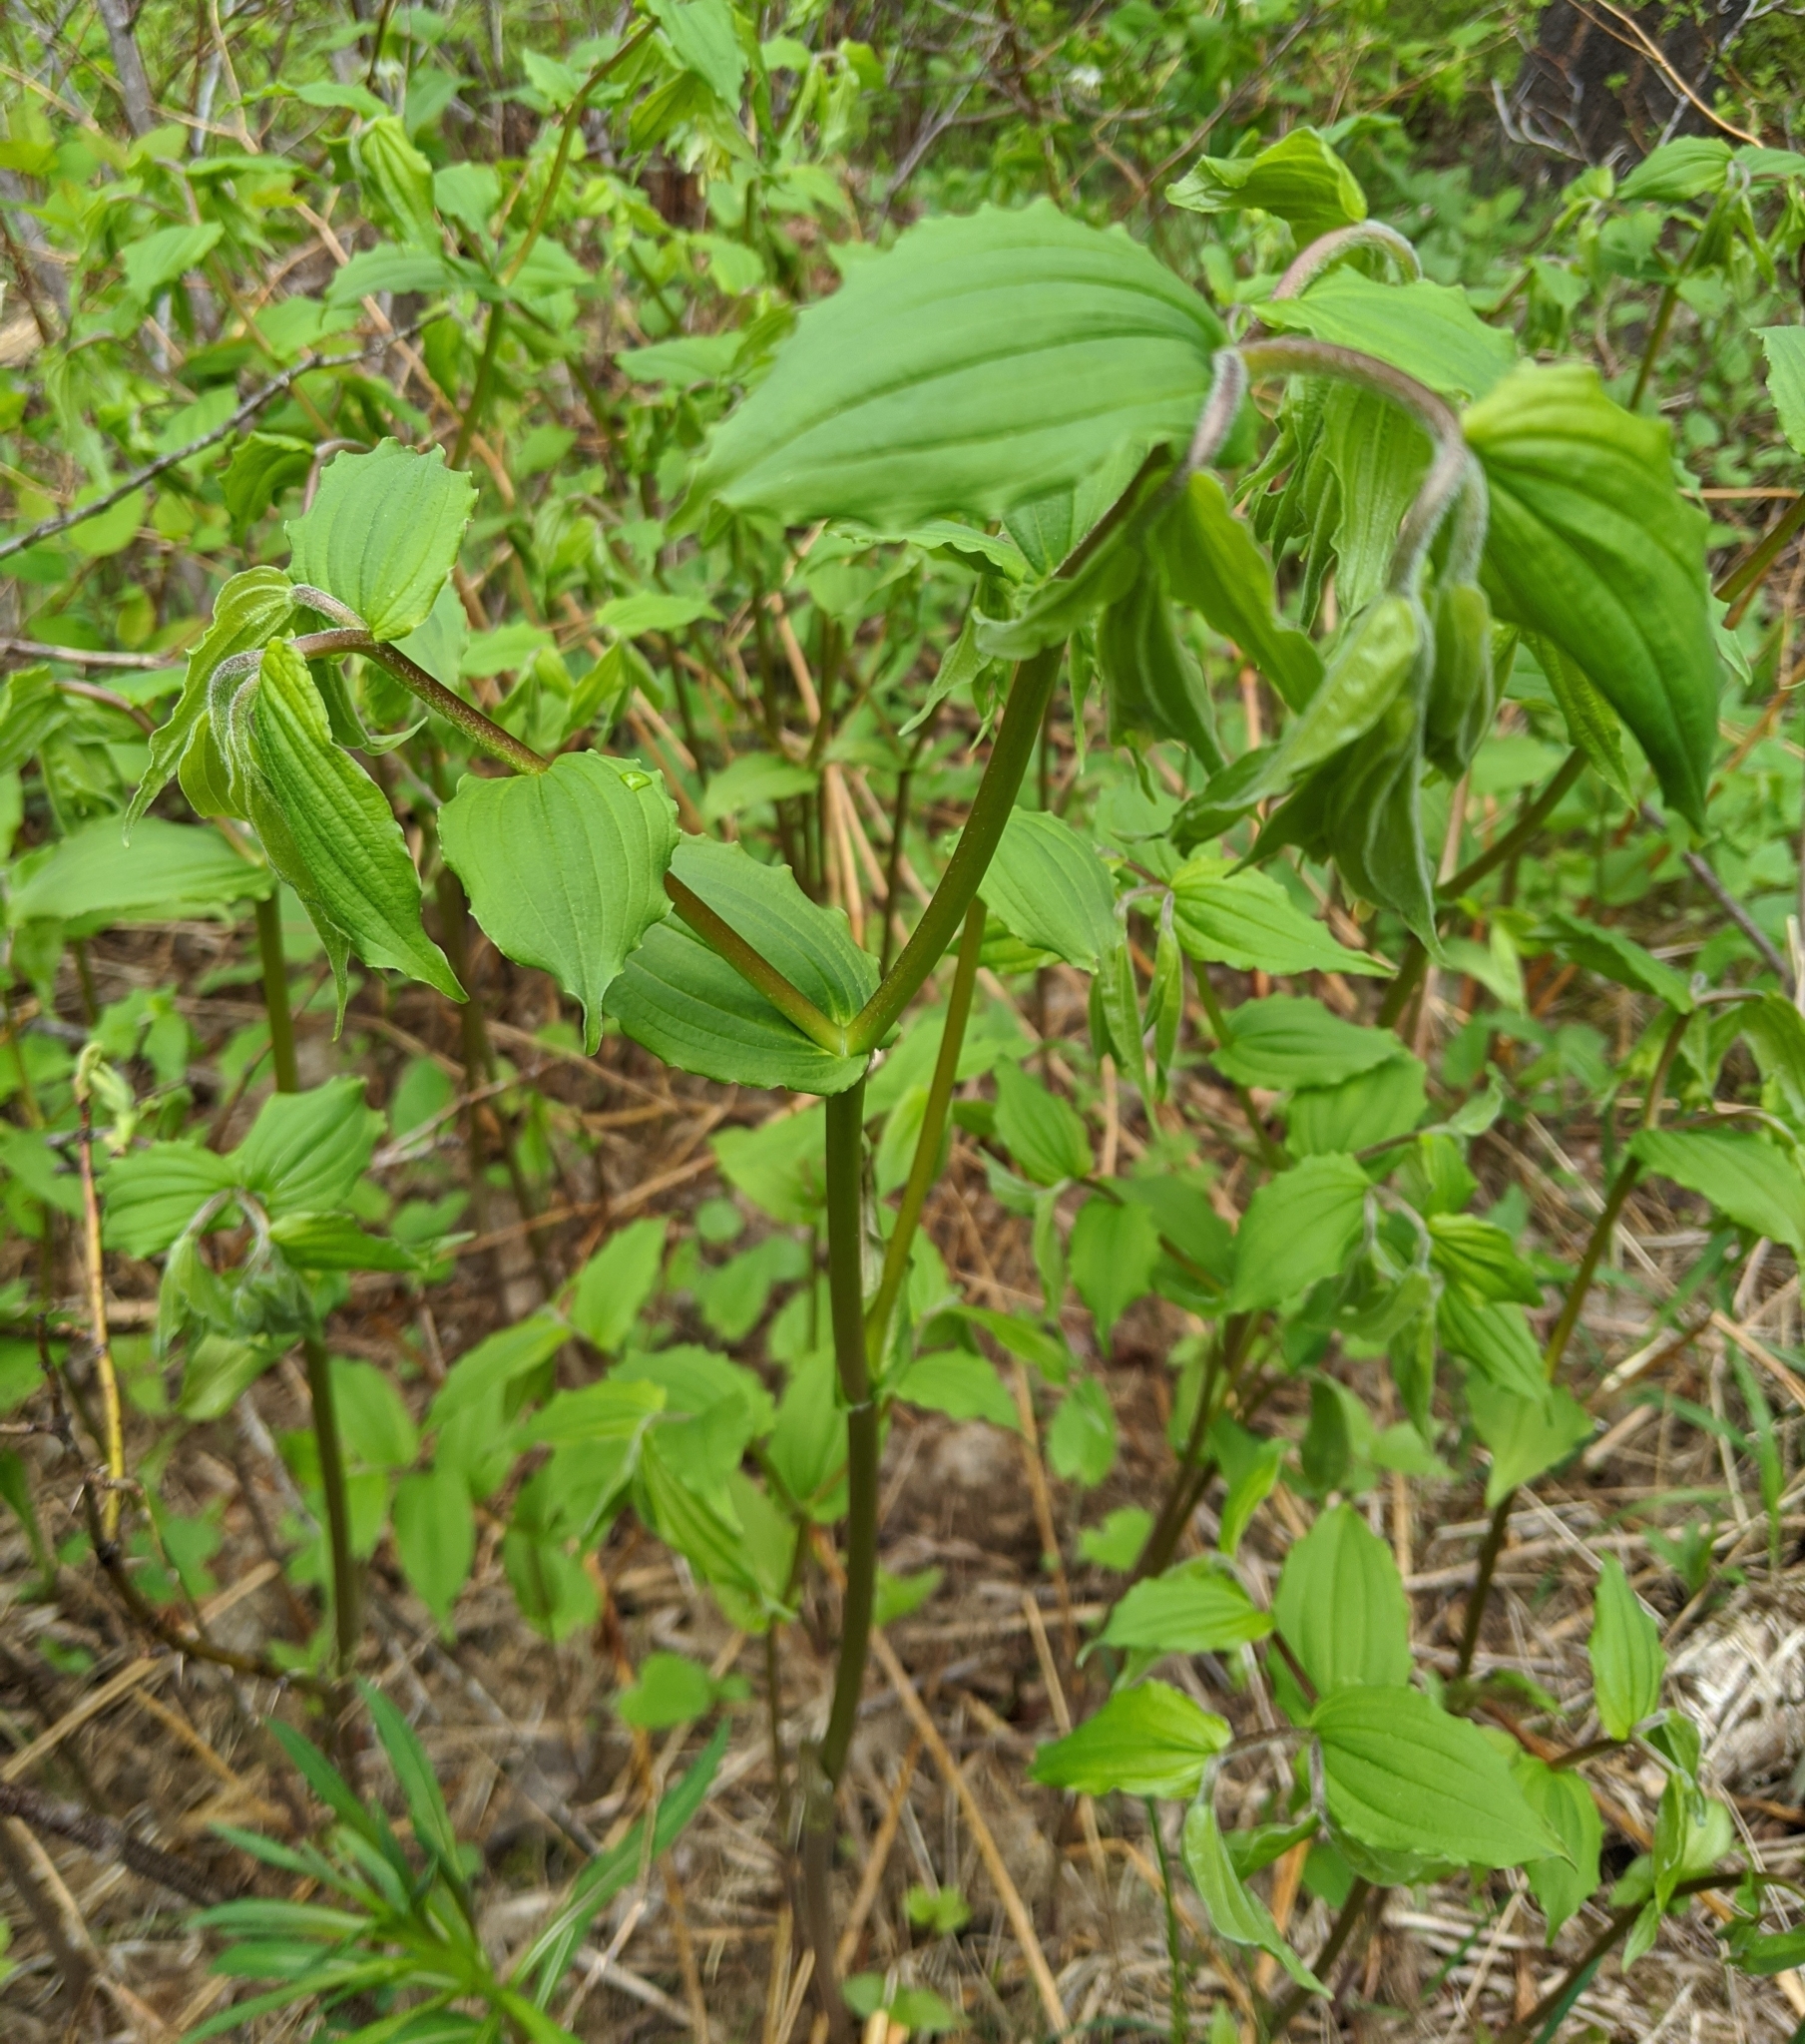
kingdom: Plantae
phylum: Tracheophyta
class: Liliopsida
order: Liliales
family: Liliaceae
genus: Prosartes
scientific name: Prosartes hookeri
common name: Fairy-bells
